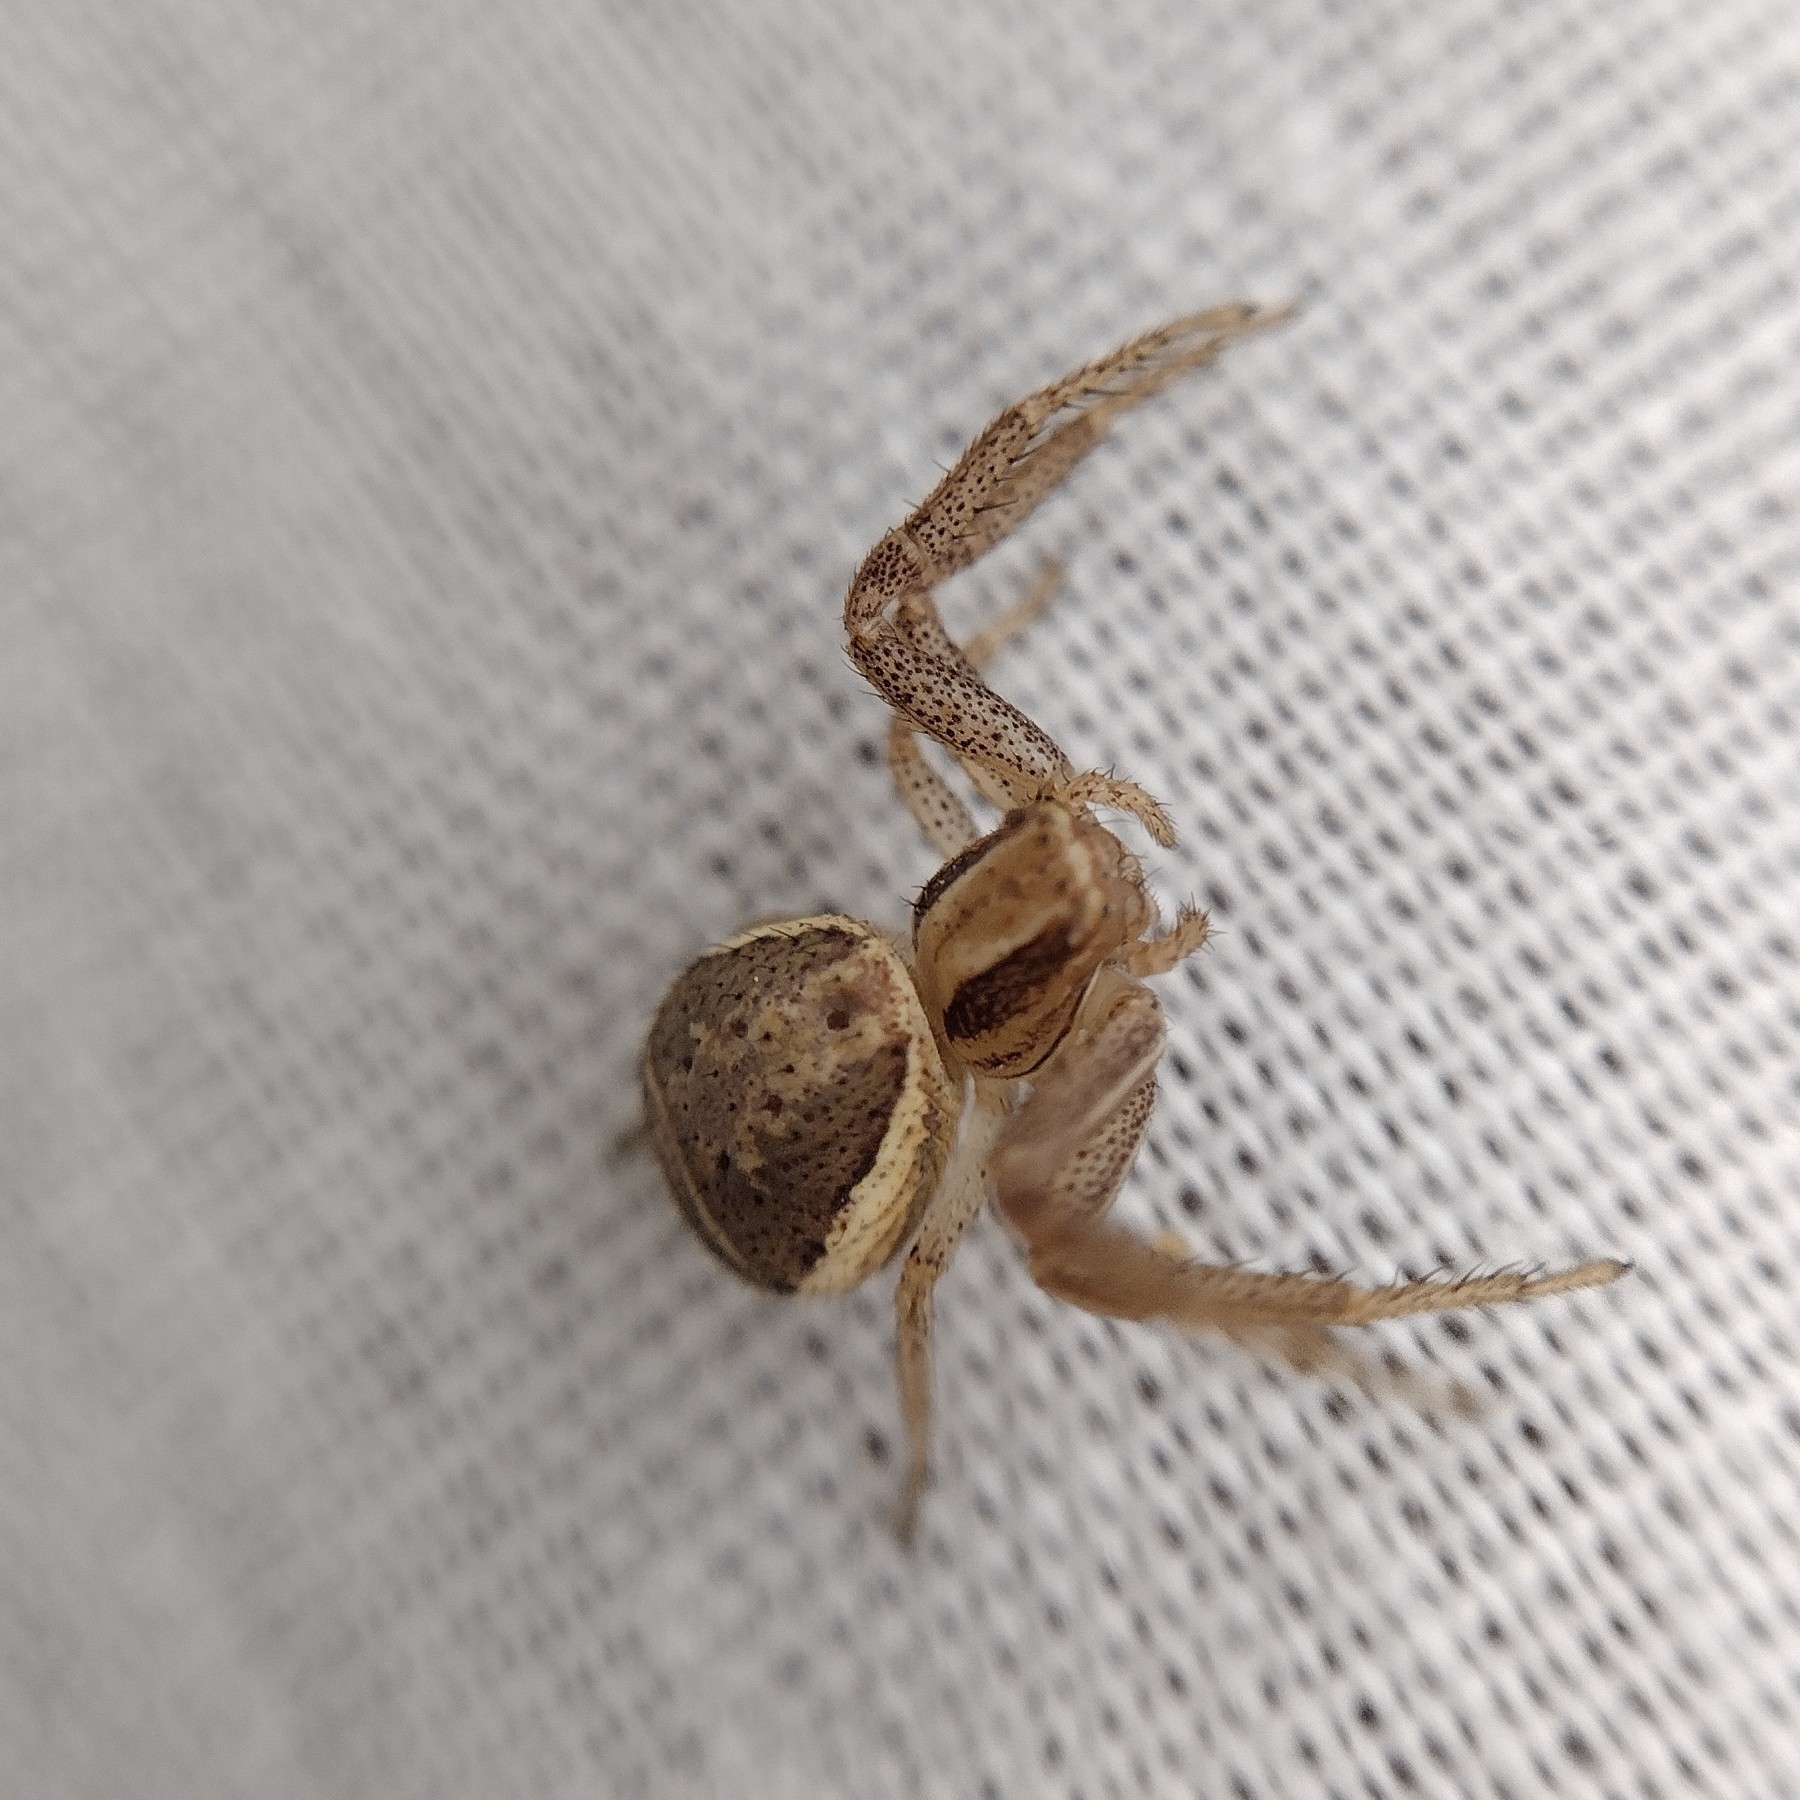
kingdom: Animalia
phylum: Arthropoda
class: Arachnida
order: Araneae
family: Thomisidae
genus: Xysticus
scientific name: Xysticus ulmi
